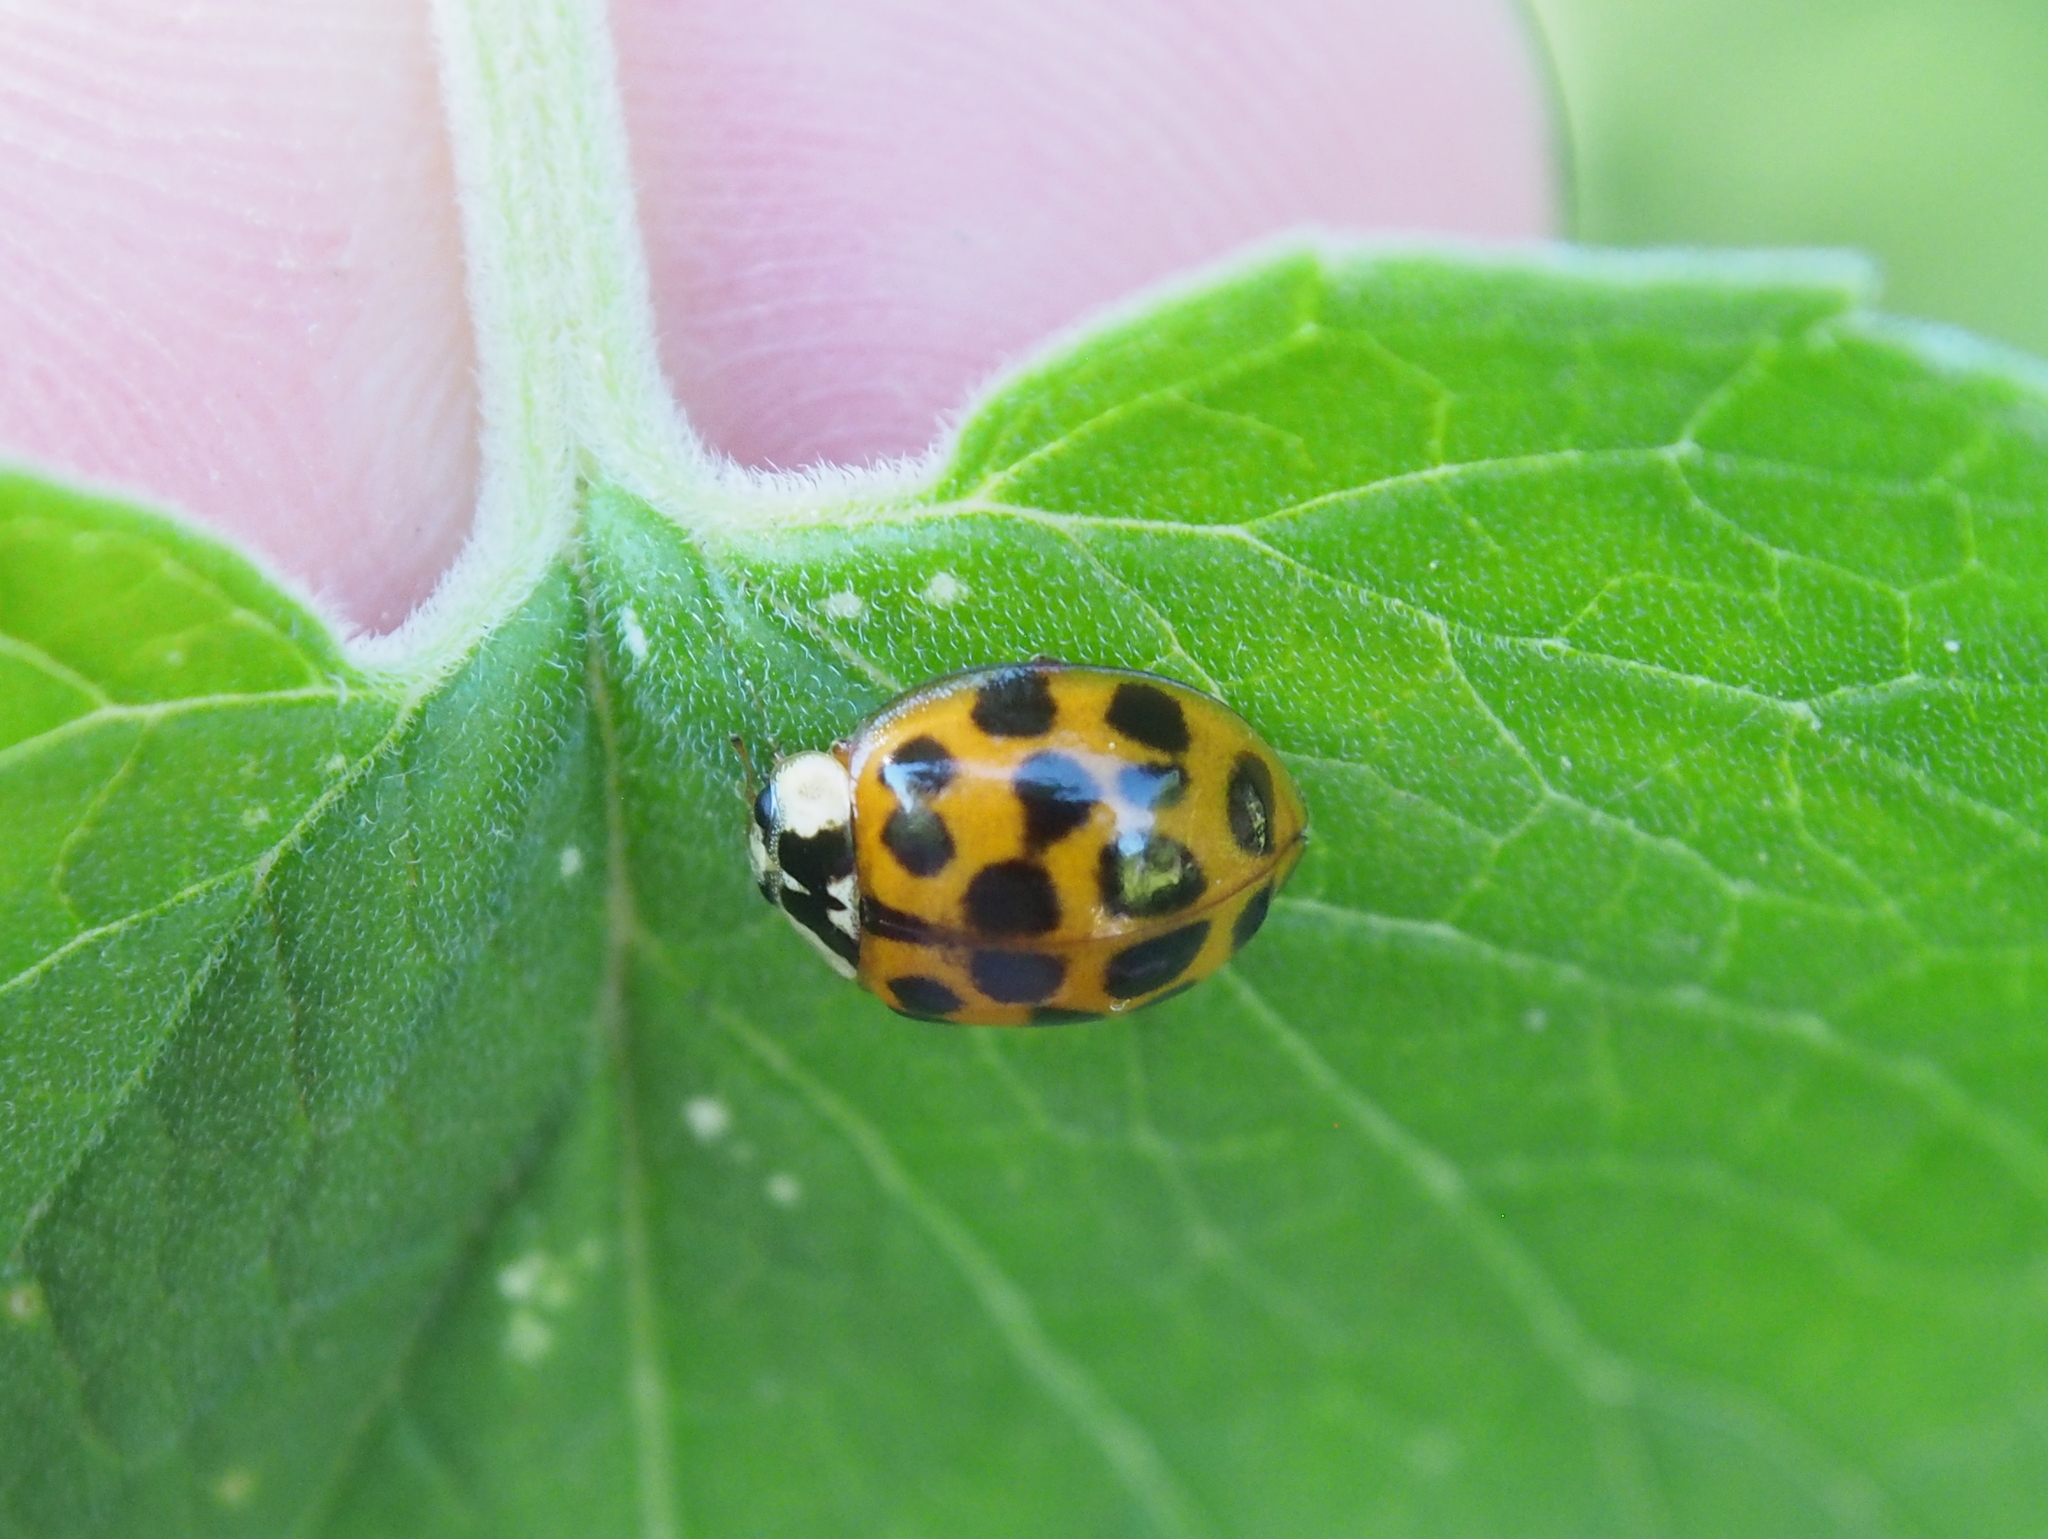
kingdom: Animalia
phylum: Arthropoda
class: Insecta
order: Coleoptera
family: Coccinellidae
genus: Harmonia
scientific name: Harmonia axyridis
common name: Harlequin ladybird
